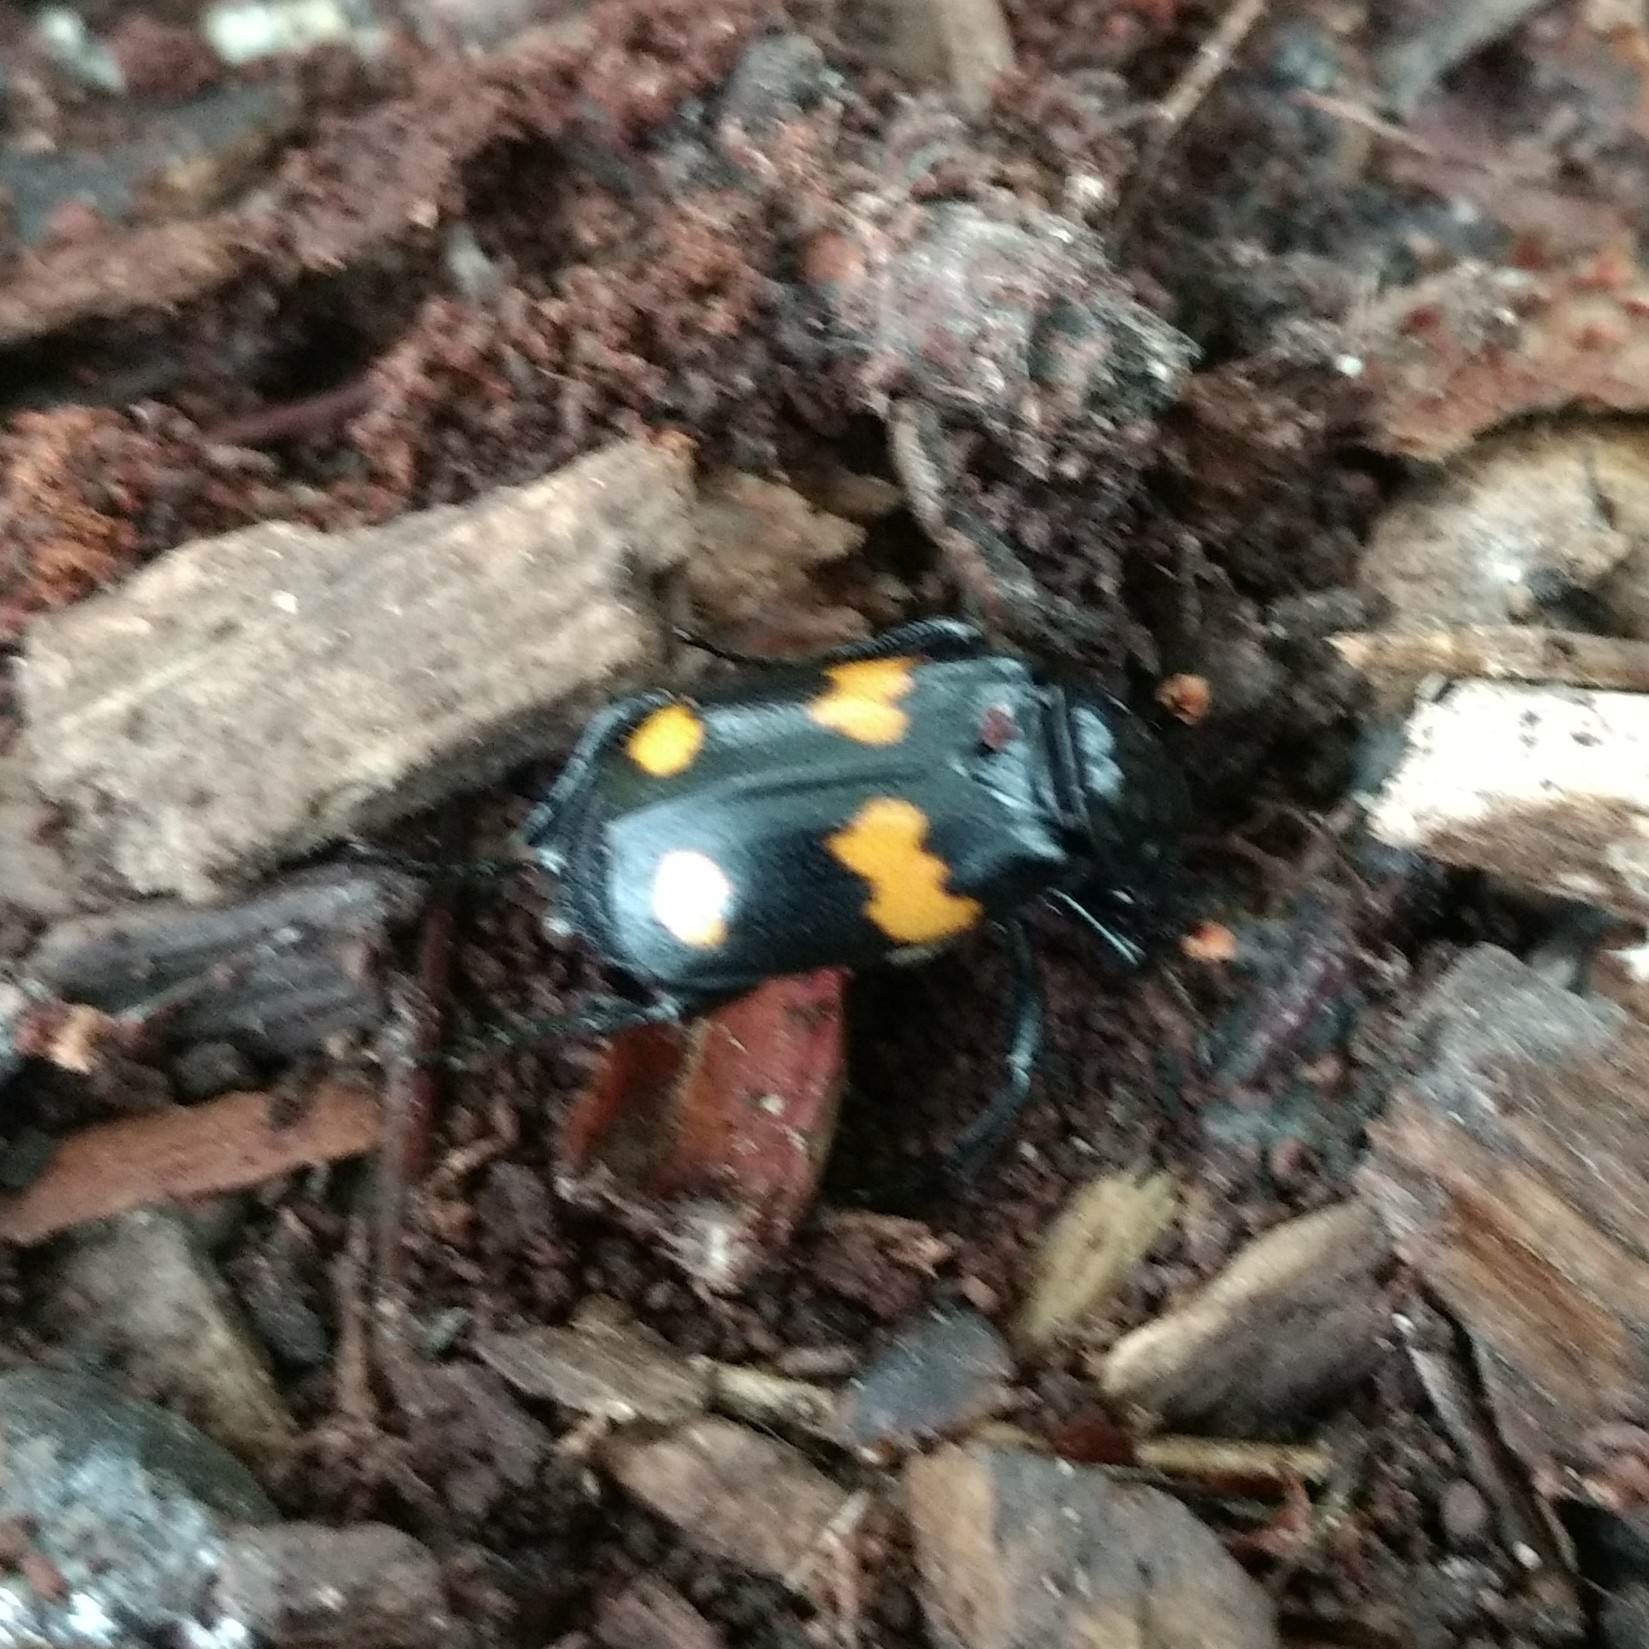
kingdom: Animalia
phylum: Arthropoda
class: Insecta
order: Coleoptera
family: Staphylinidae
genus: Nicrophorus
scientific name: Nicrophorus orbicollis
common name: Roundneck sexton beetle
